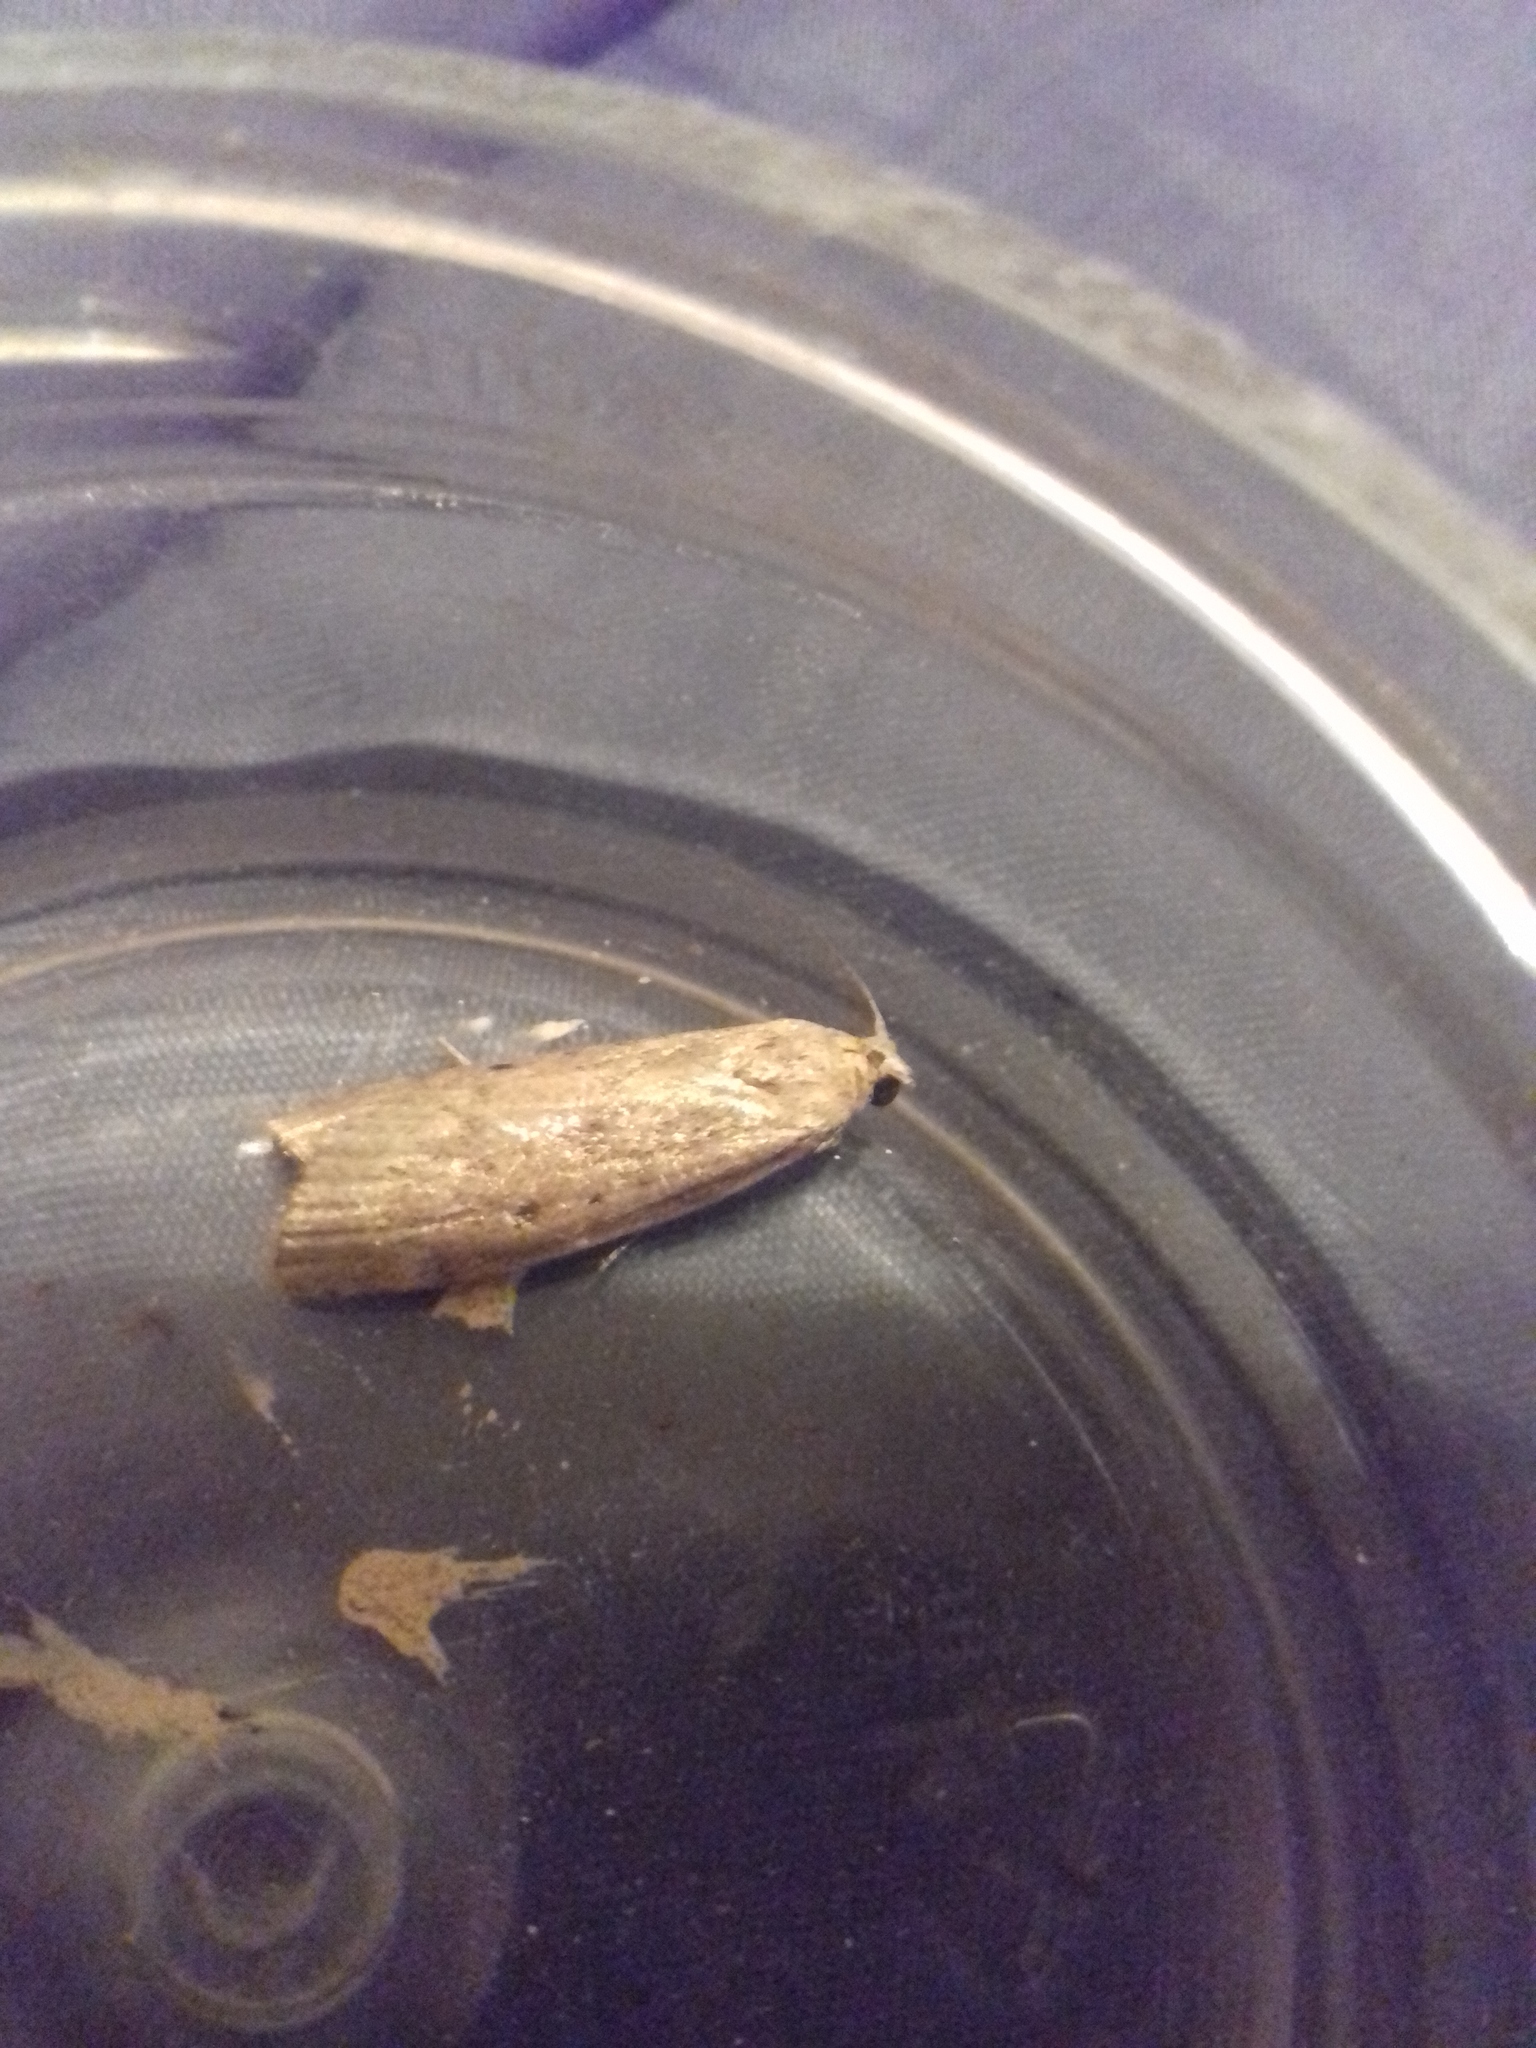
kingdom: Animalia
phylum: Arthropoda
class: Insecta
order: Lepidoptera
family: Pyralidae
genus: Aphomia
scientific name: Aphomia sociella
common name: Bee moth
